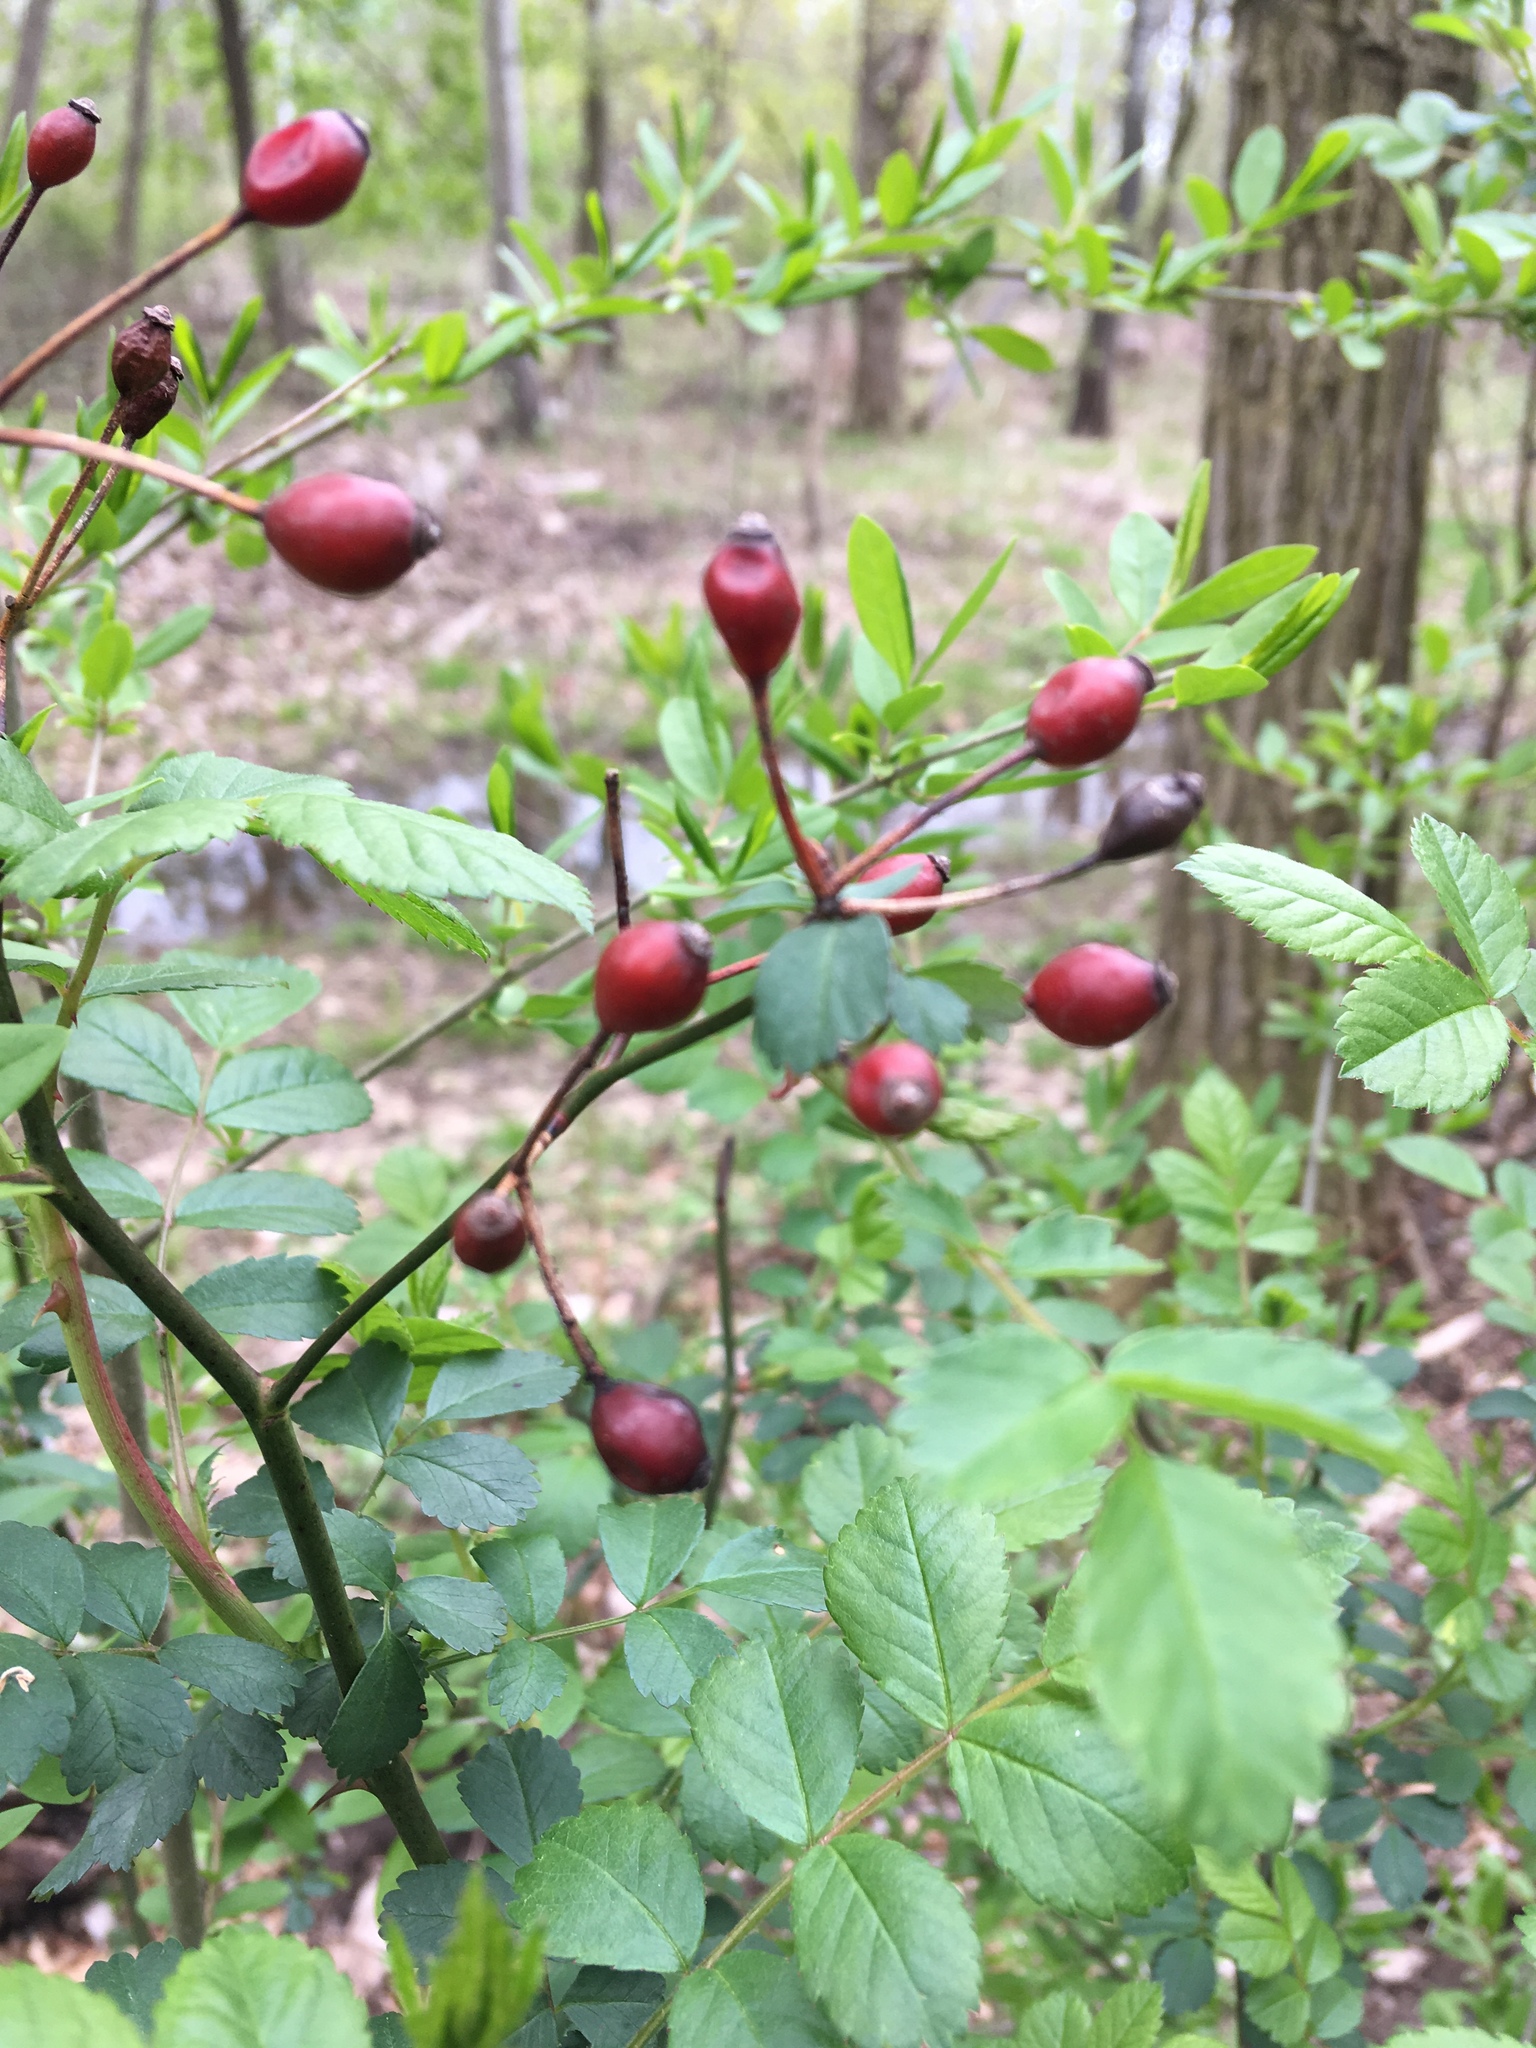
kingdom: Plantae
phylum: Tracheophyta
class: Magnoliopsida
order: Rosales
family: Rosaceae
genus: Rosa
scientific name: Rosa multiflora
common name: Multiflora rose
